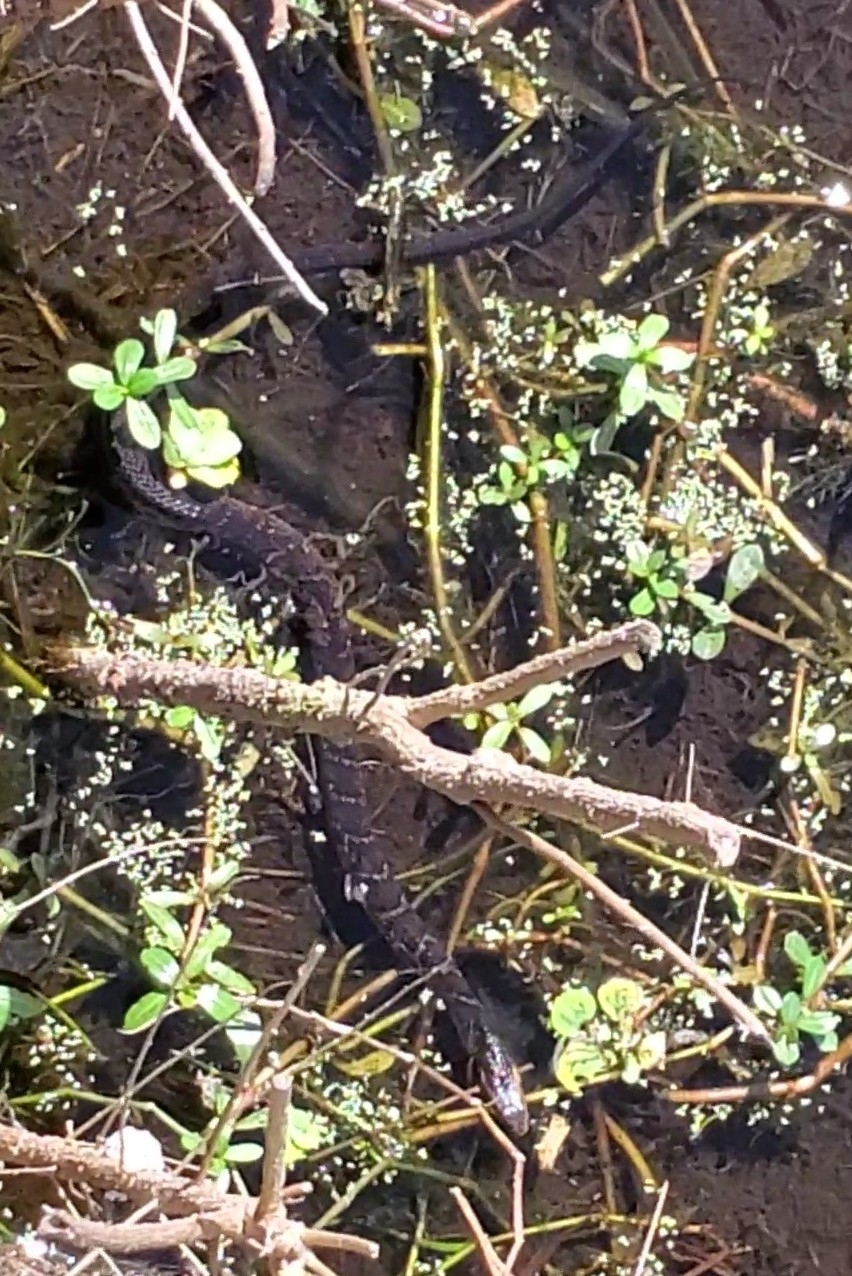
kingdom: Animalia
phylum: Chordata
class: Squamata
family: Colubridae
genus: Nerodia
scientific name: Nerodia fasciata
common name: Southern water snake
